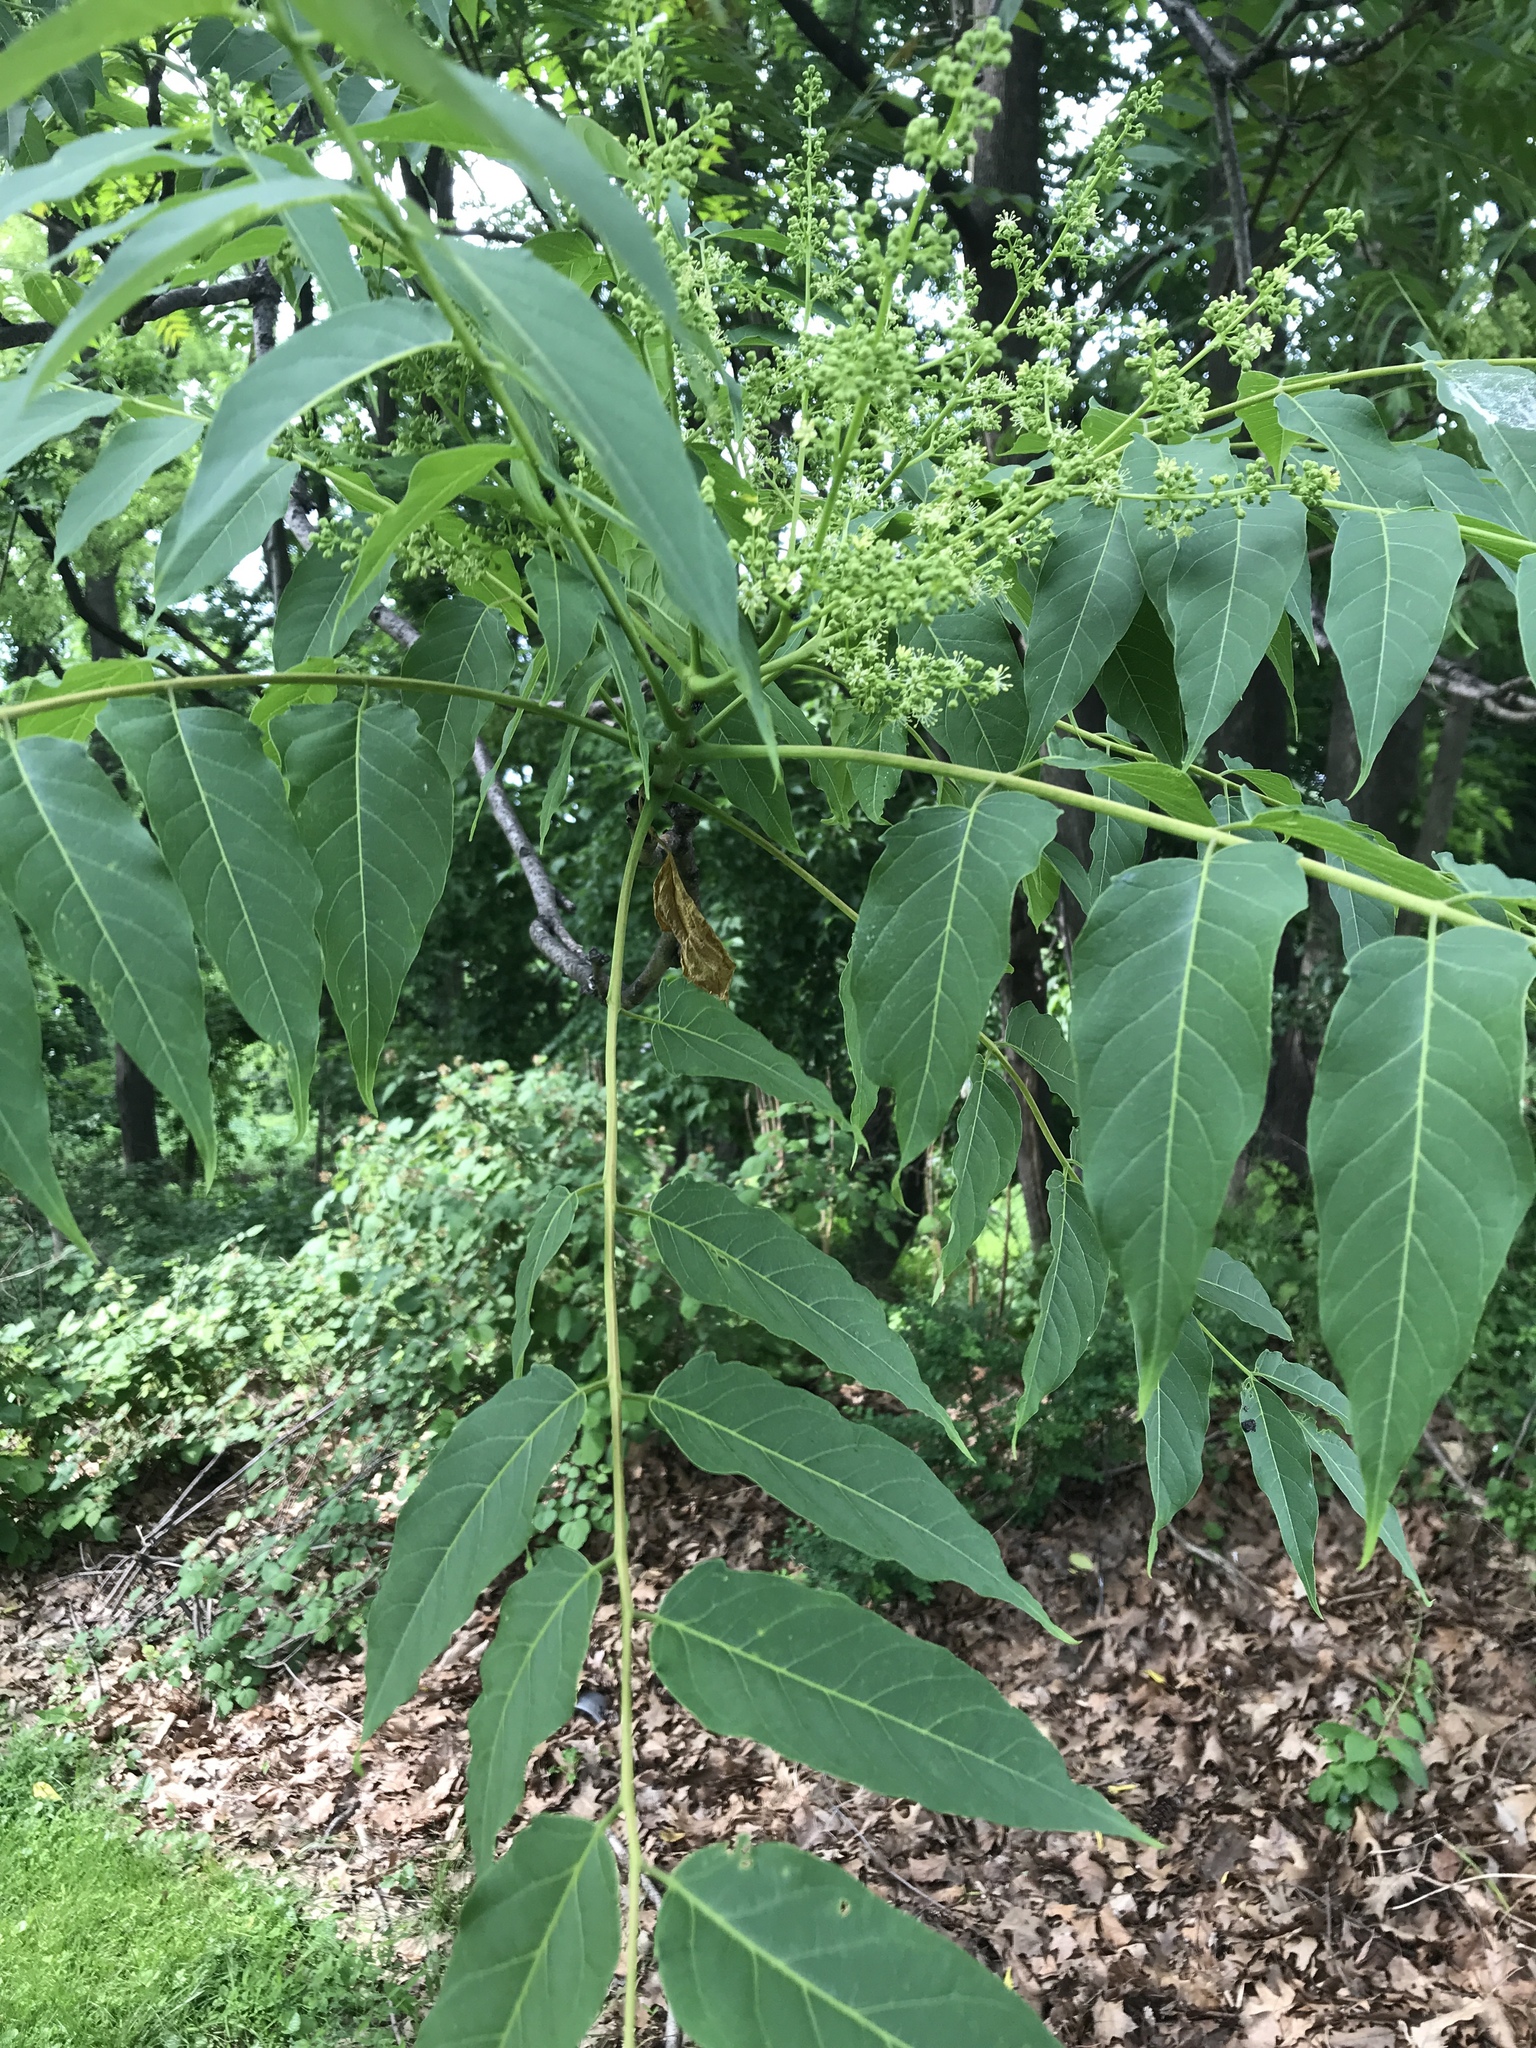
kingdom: Plantae
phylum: Tracheophyta
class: Magnoliopsida
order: Sapindales
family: Simaroubaceae
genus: Ailanthus
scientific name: Ailanthus altissima
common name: Tree-of-heaven
